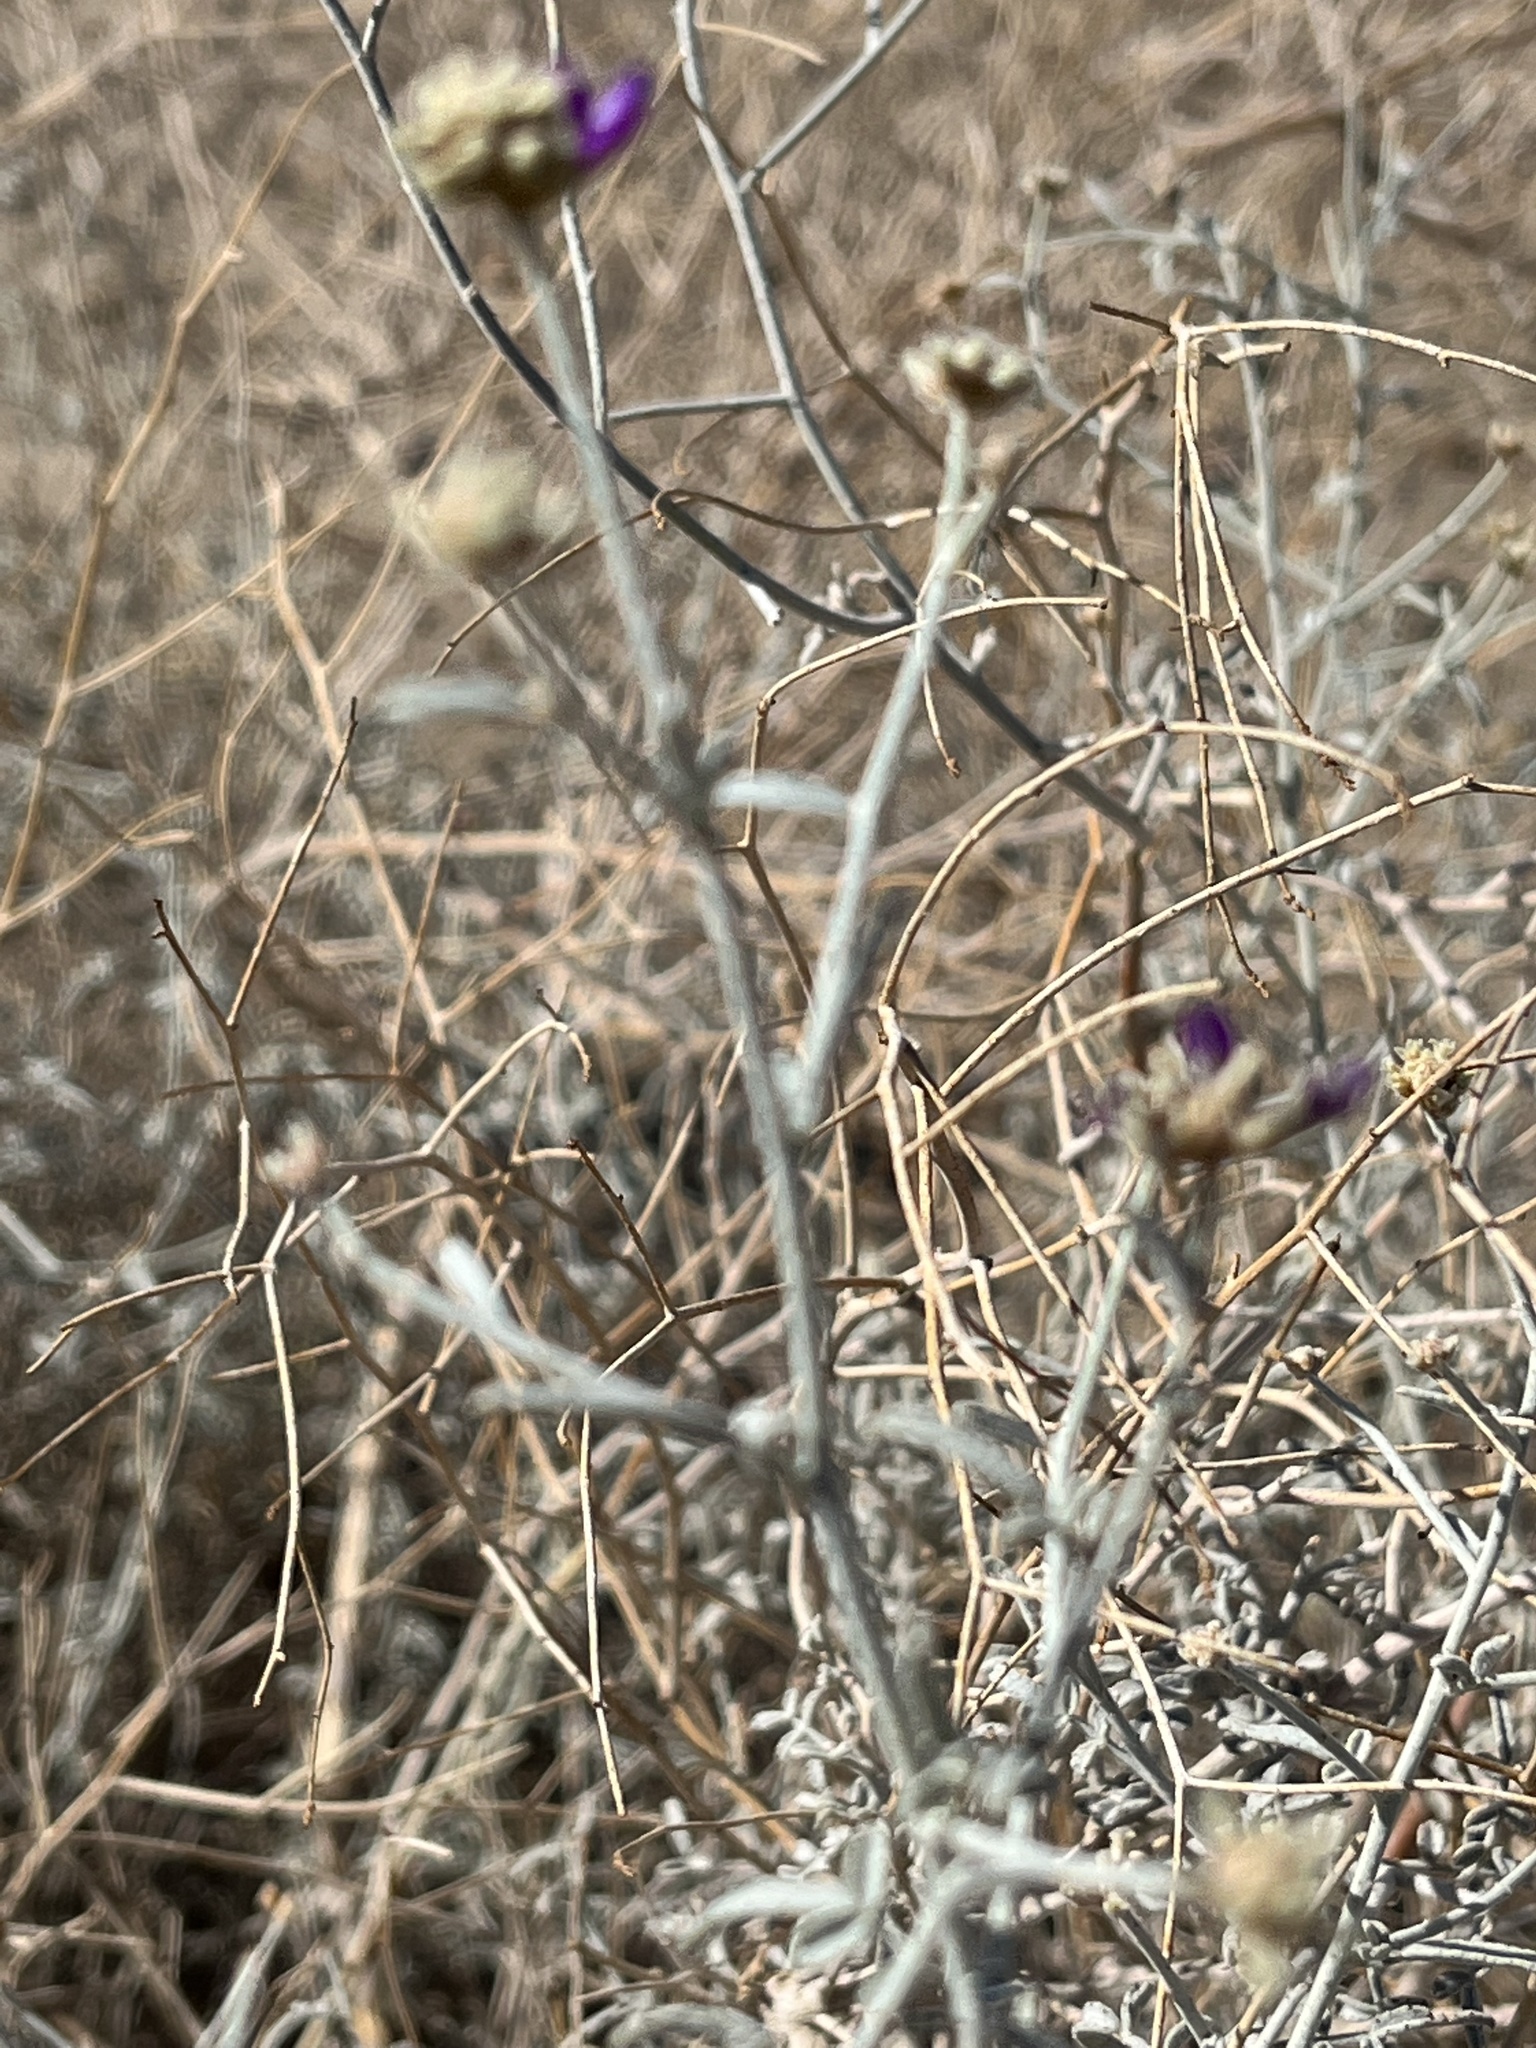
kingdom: Plantae
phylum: Tracheophyta
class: Magnoliopsida
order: Fabales
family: Fabaceae
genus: Psorothamnus
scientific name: Psorothamnus emoryi
